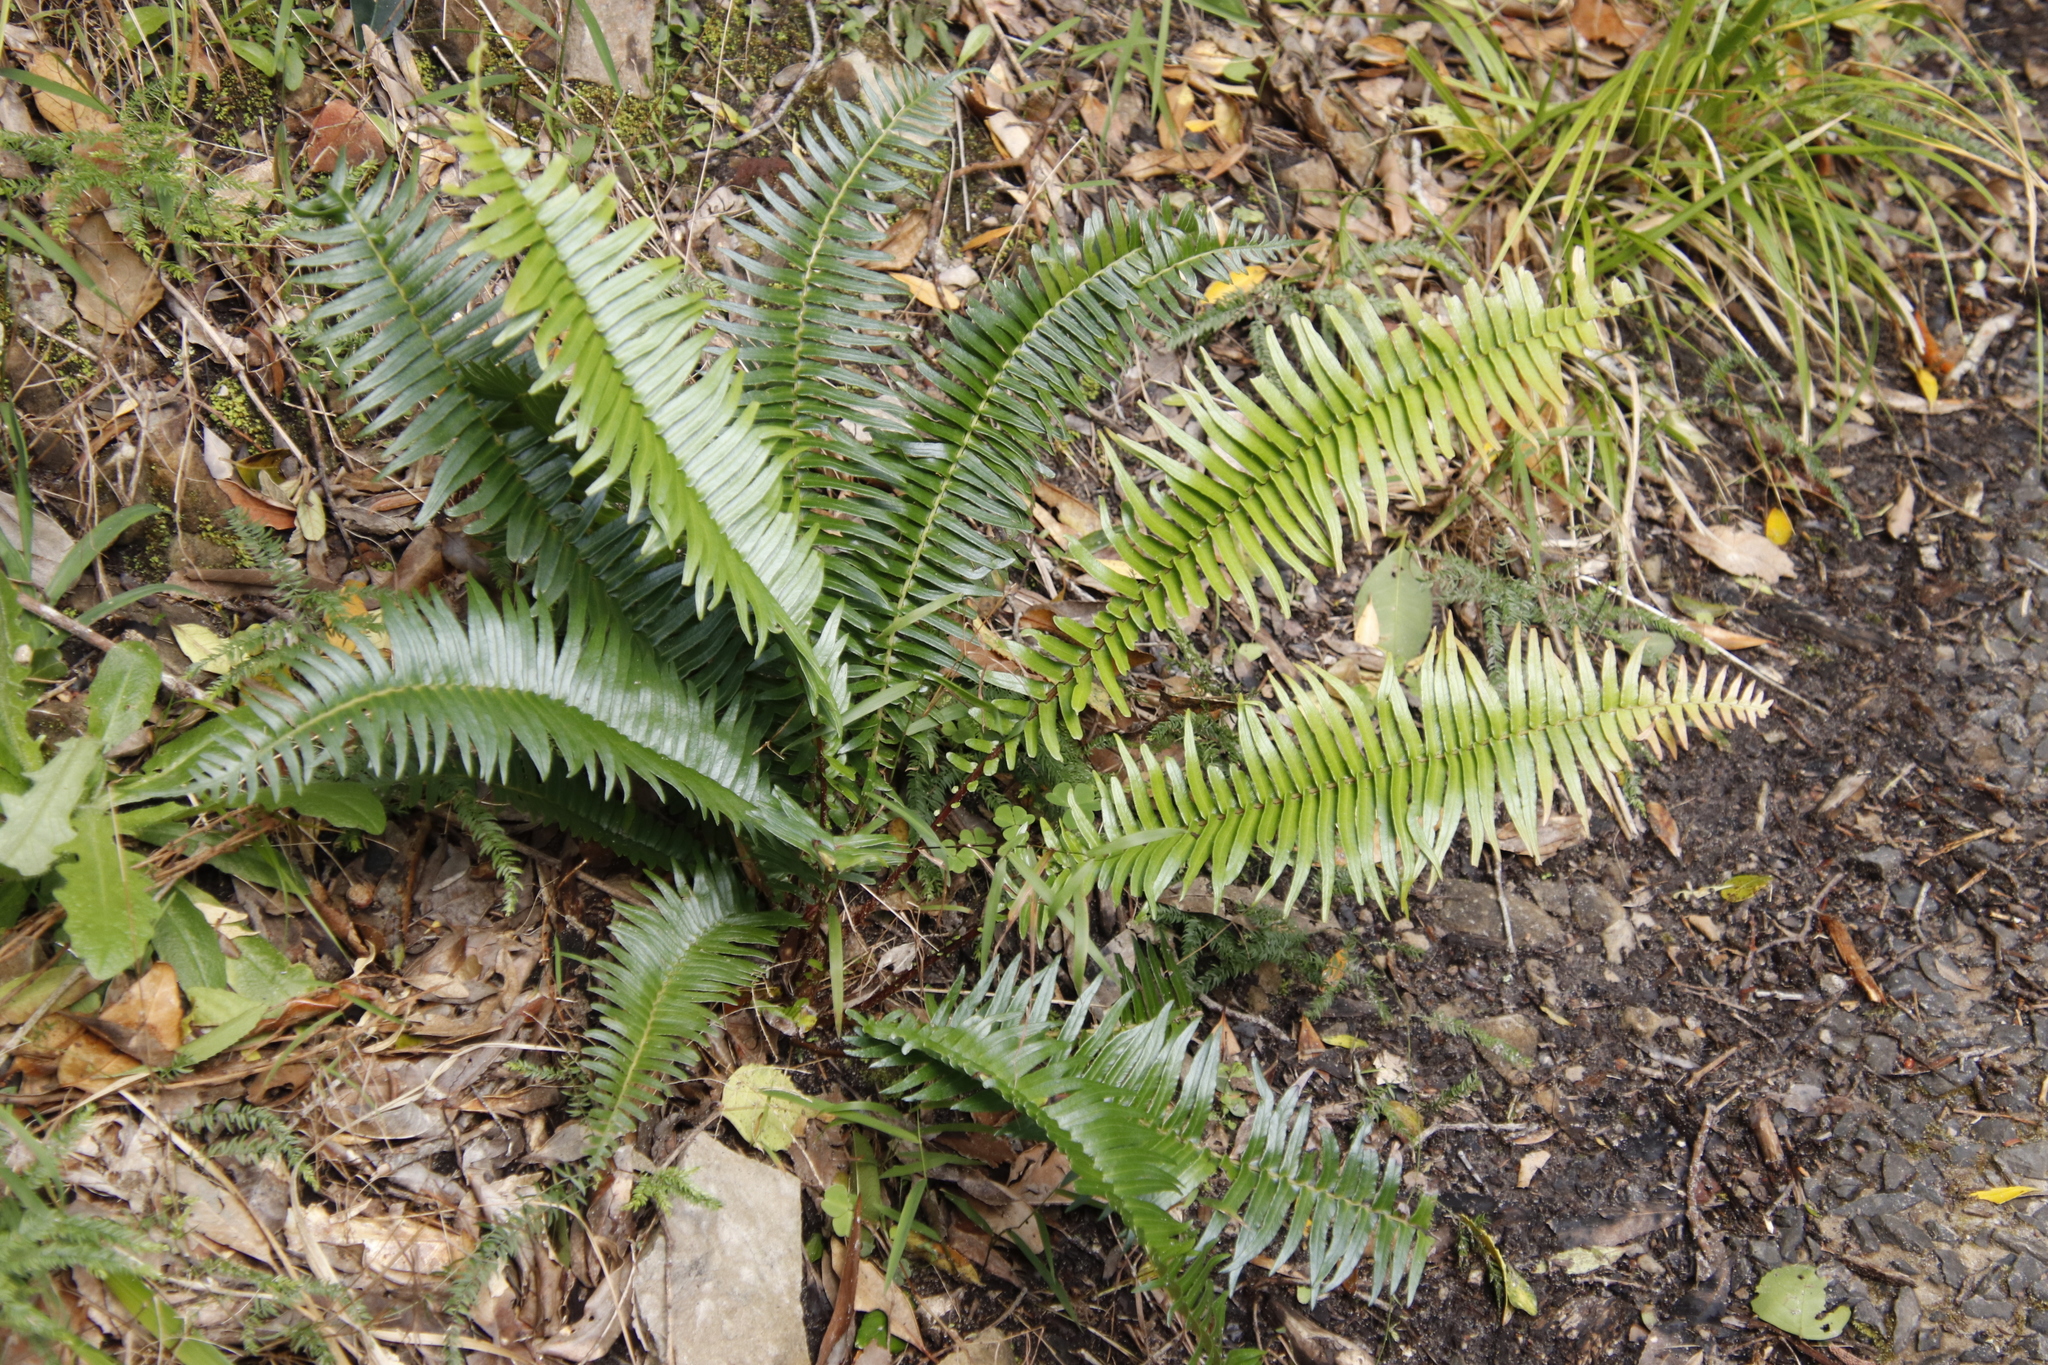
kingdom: Plantae
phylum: Tracheophyta
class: Polypodiopsida
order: Polypodiales
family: Blechnaceae
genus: Blechnum
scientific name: Blechnum punctulatum
